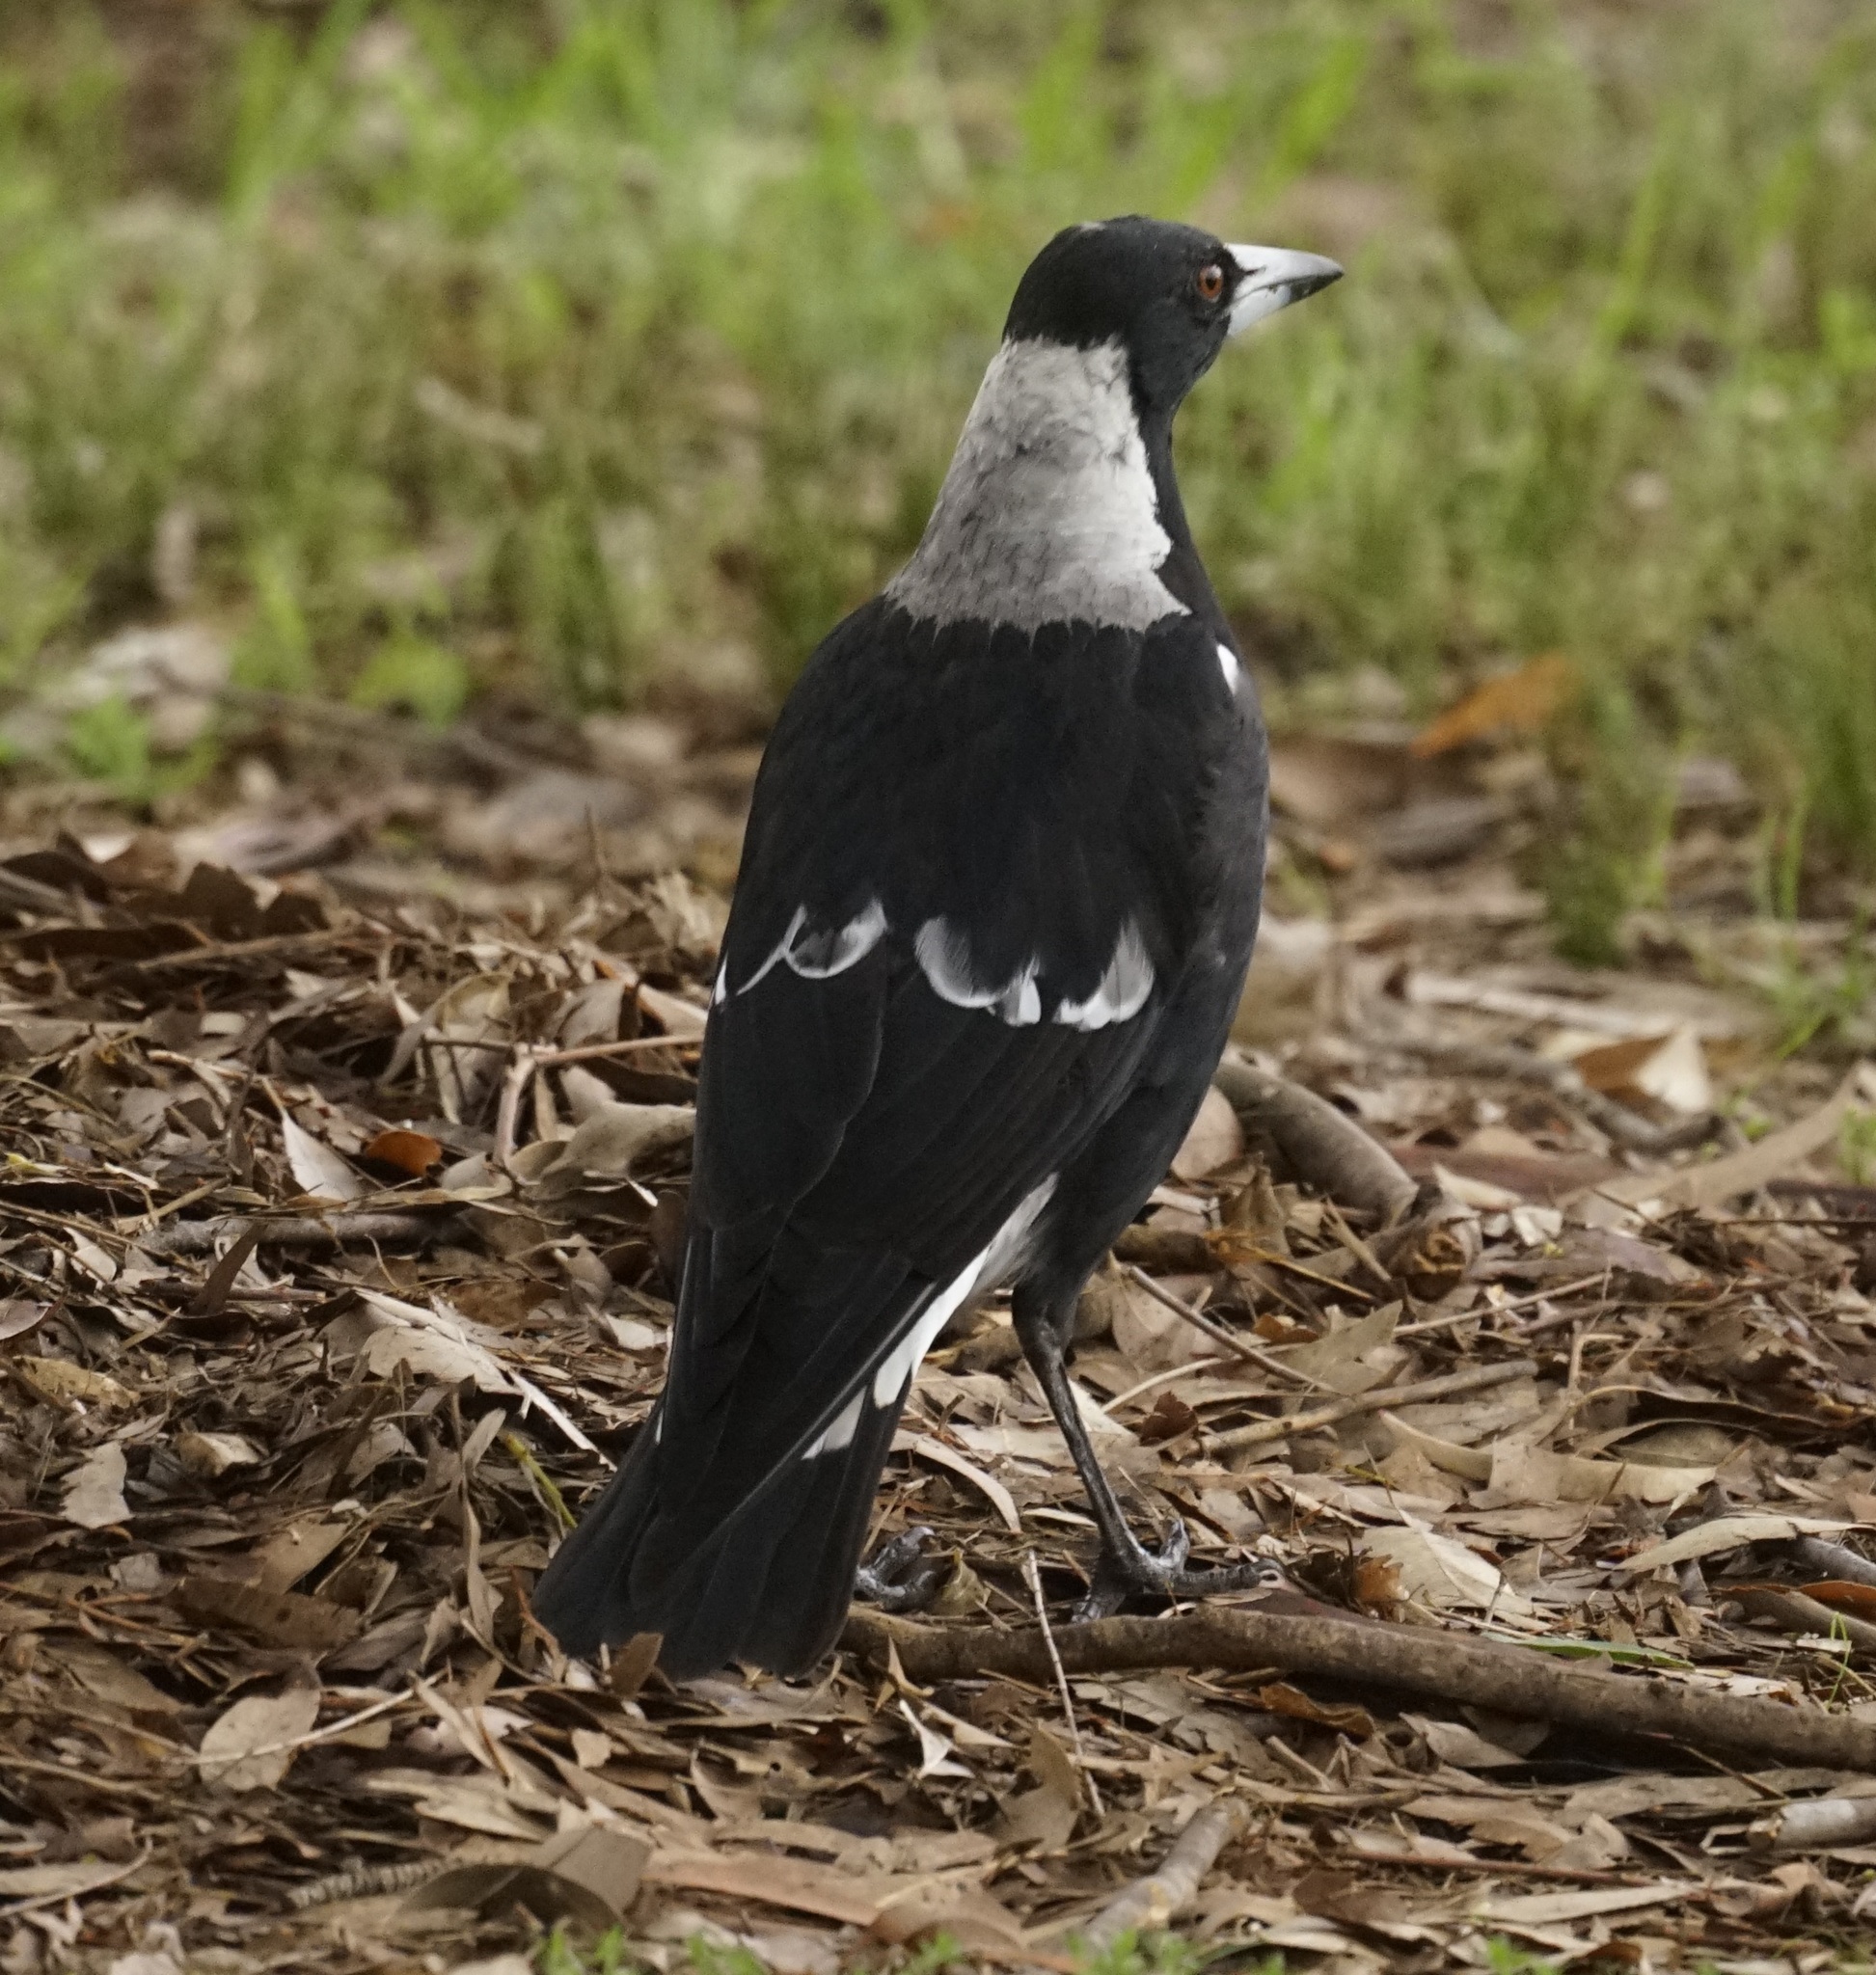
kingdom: Animalia
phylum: Chordata
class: Aves
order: Passeriformes
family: Cracticidae
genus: Gymnorhina
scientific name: Gymnorhina tibicen
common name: Australian magpie
